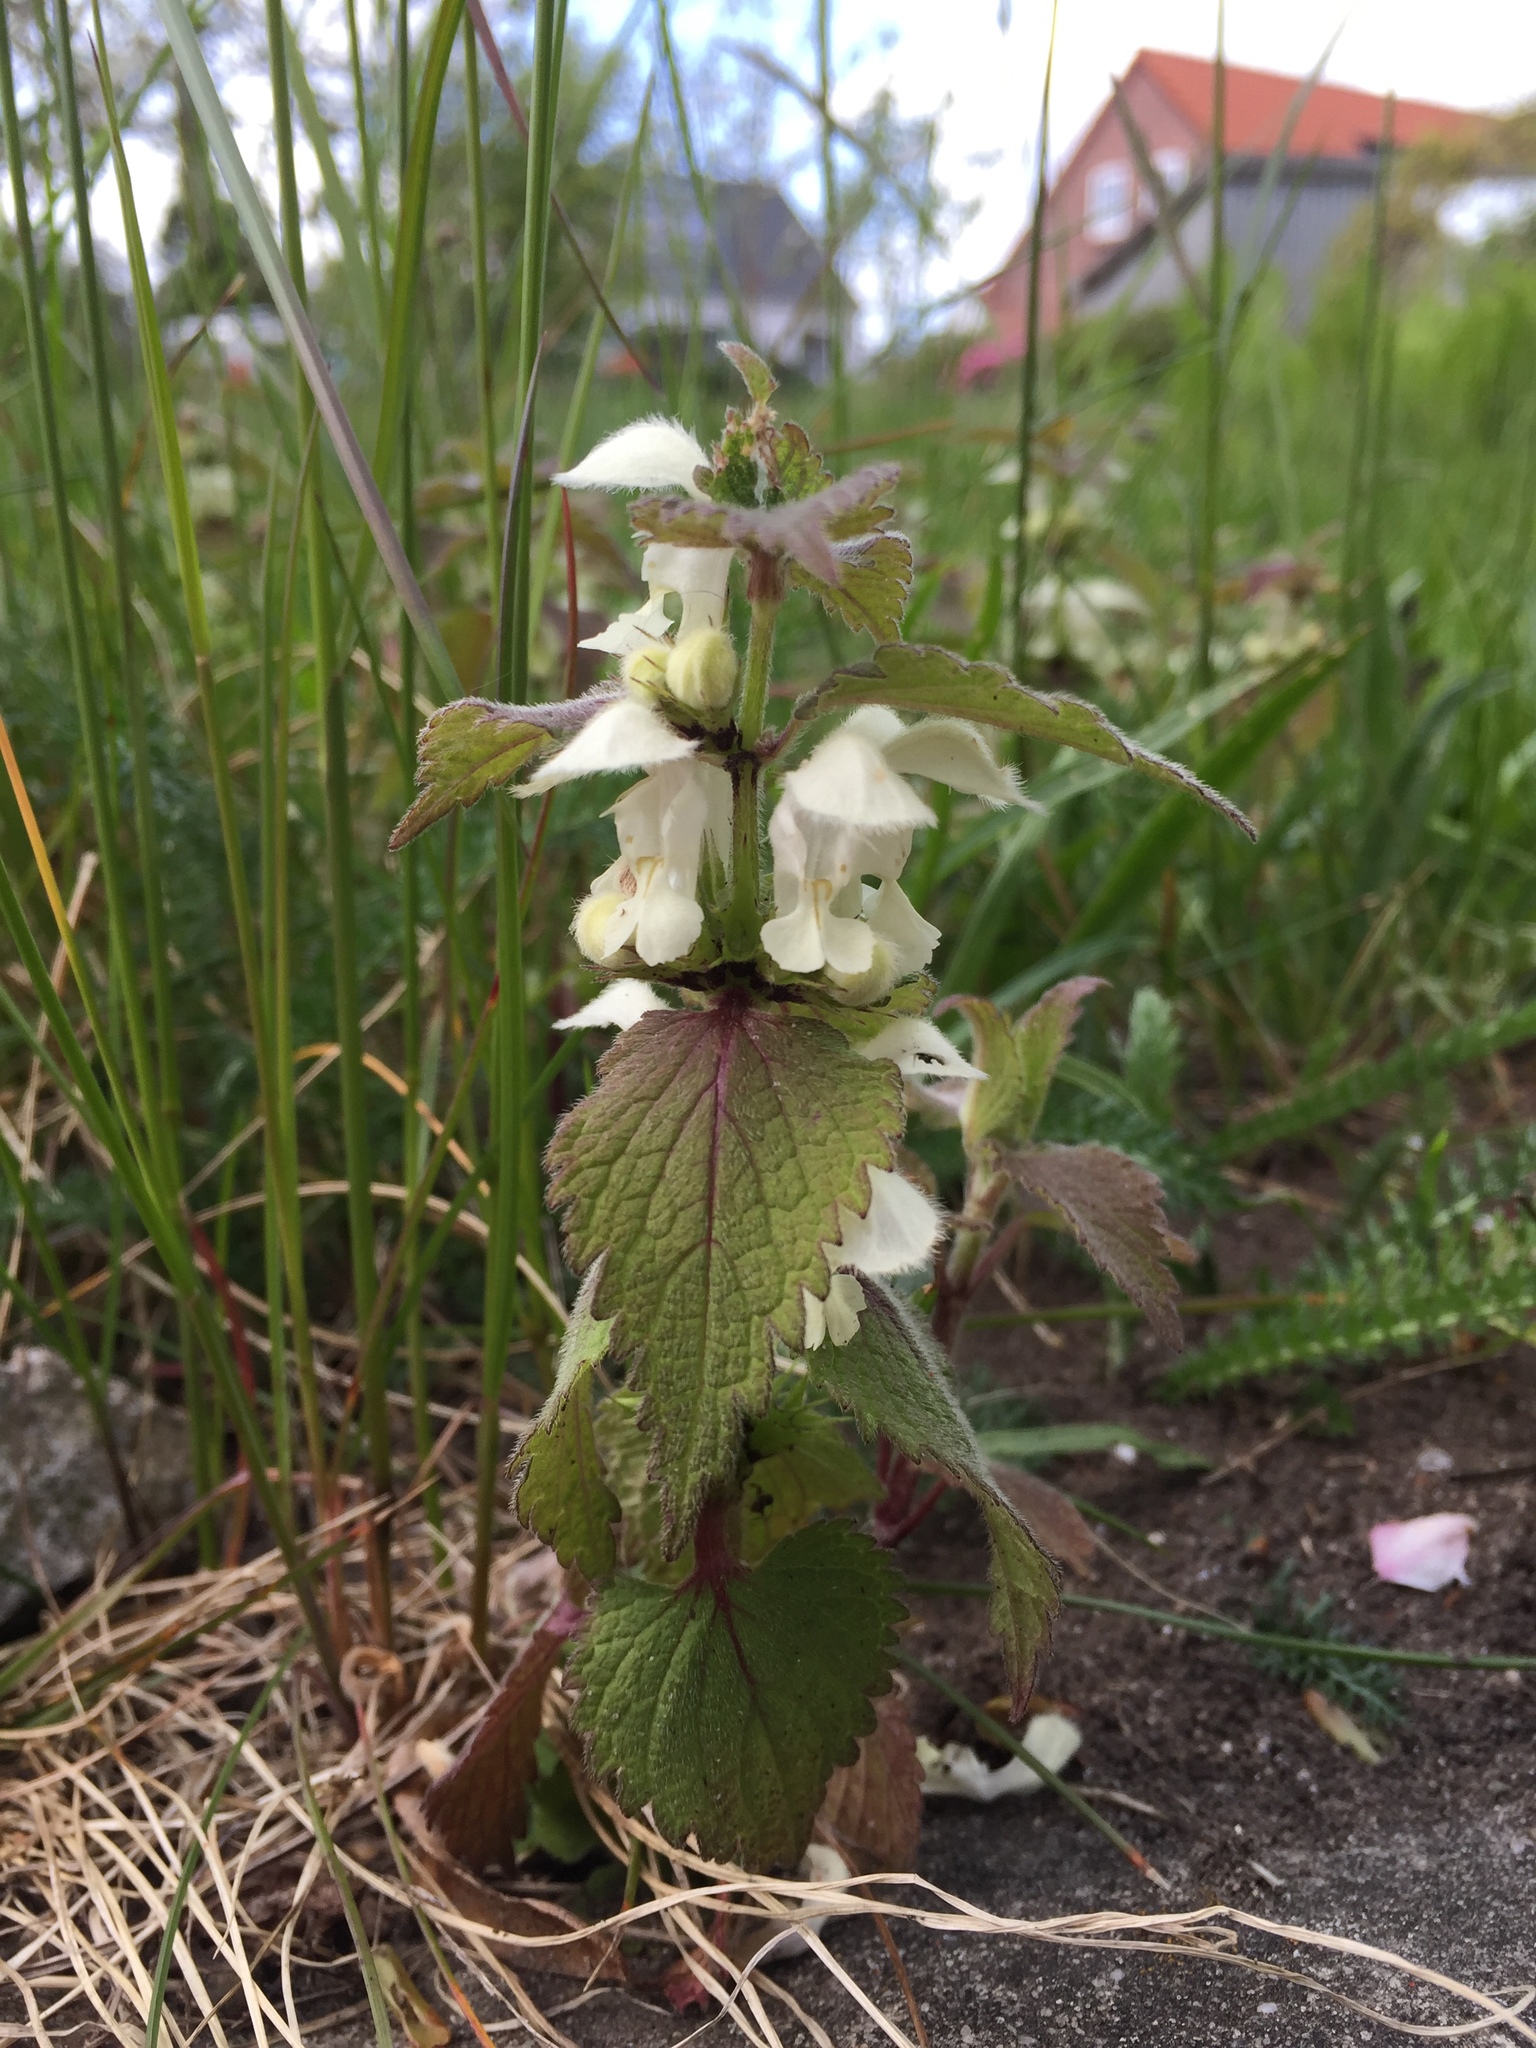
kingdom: Plantae
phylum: Tracheophyta
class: Magnoliopsida
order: Lamiales
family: Lamiaceae
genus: Lamium
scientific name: Lamium album
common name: White dead-nettle
